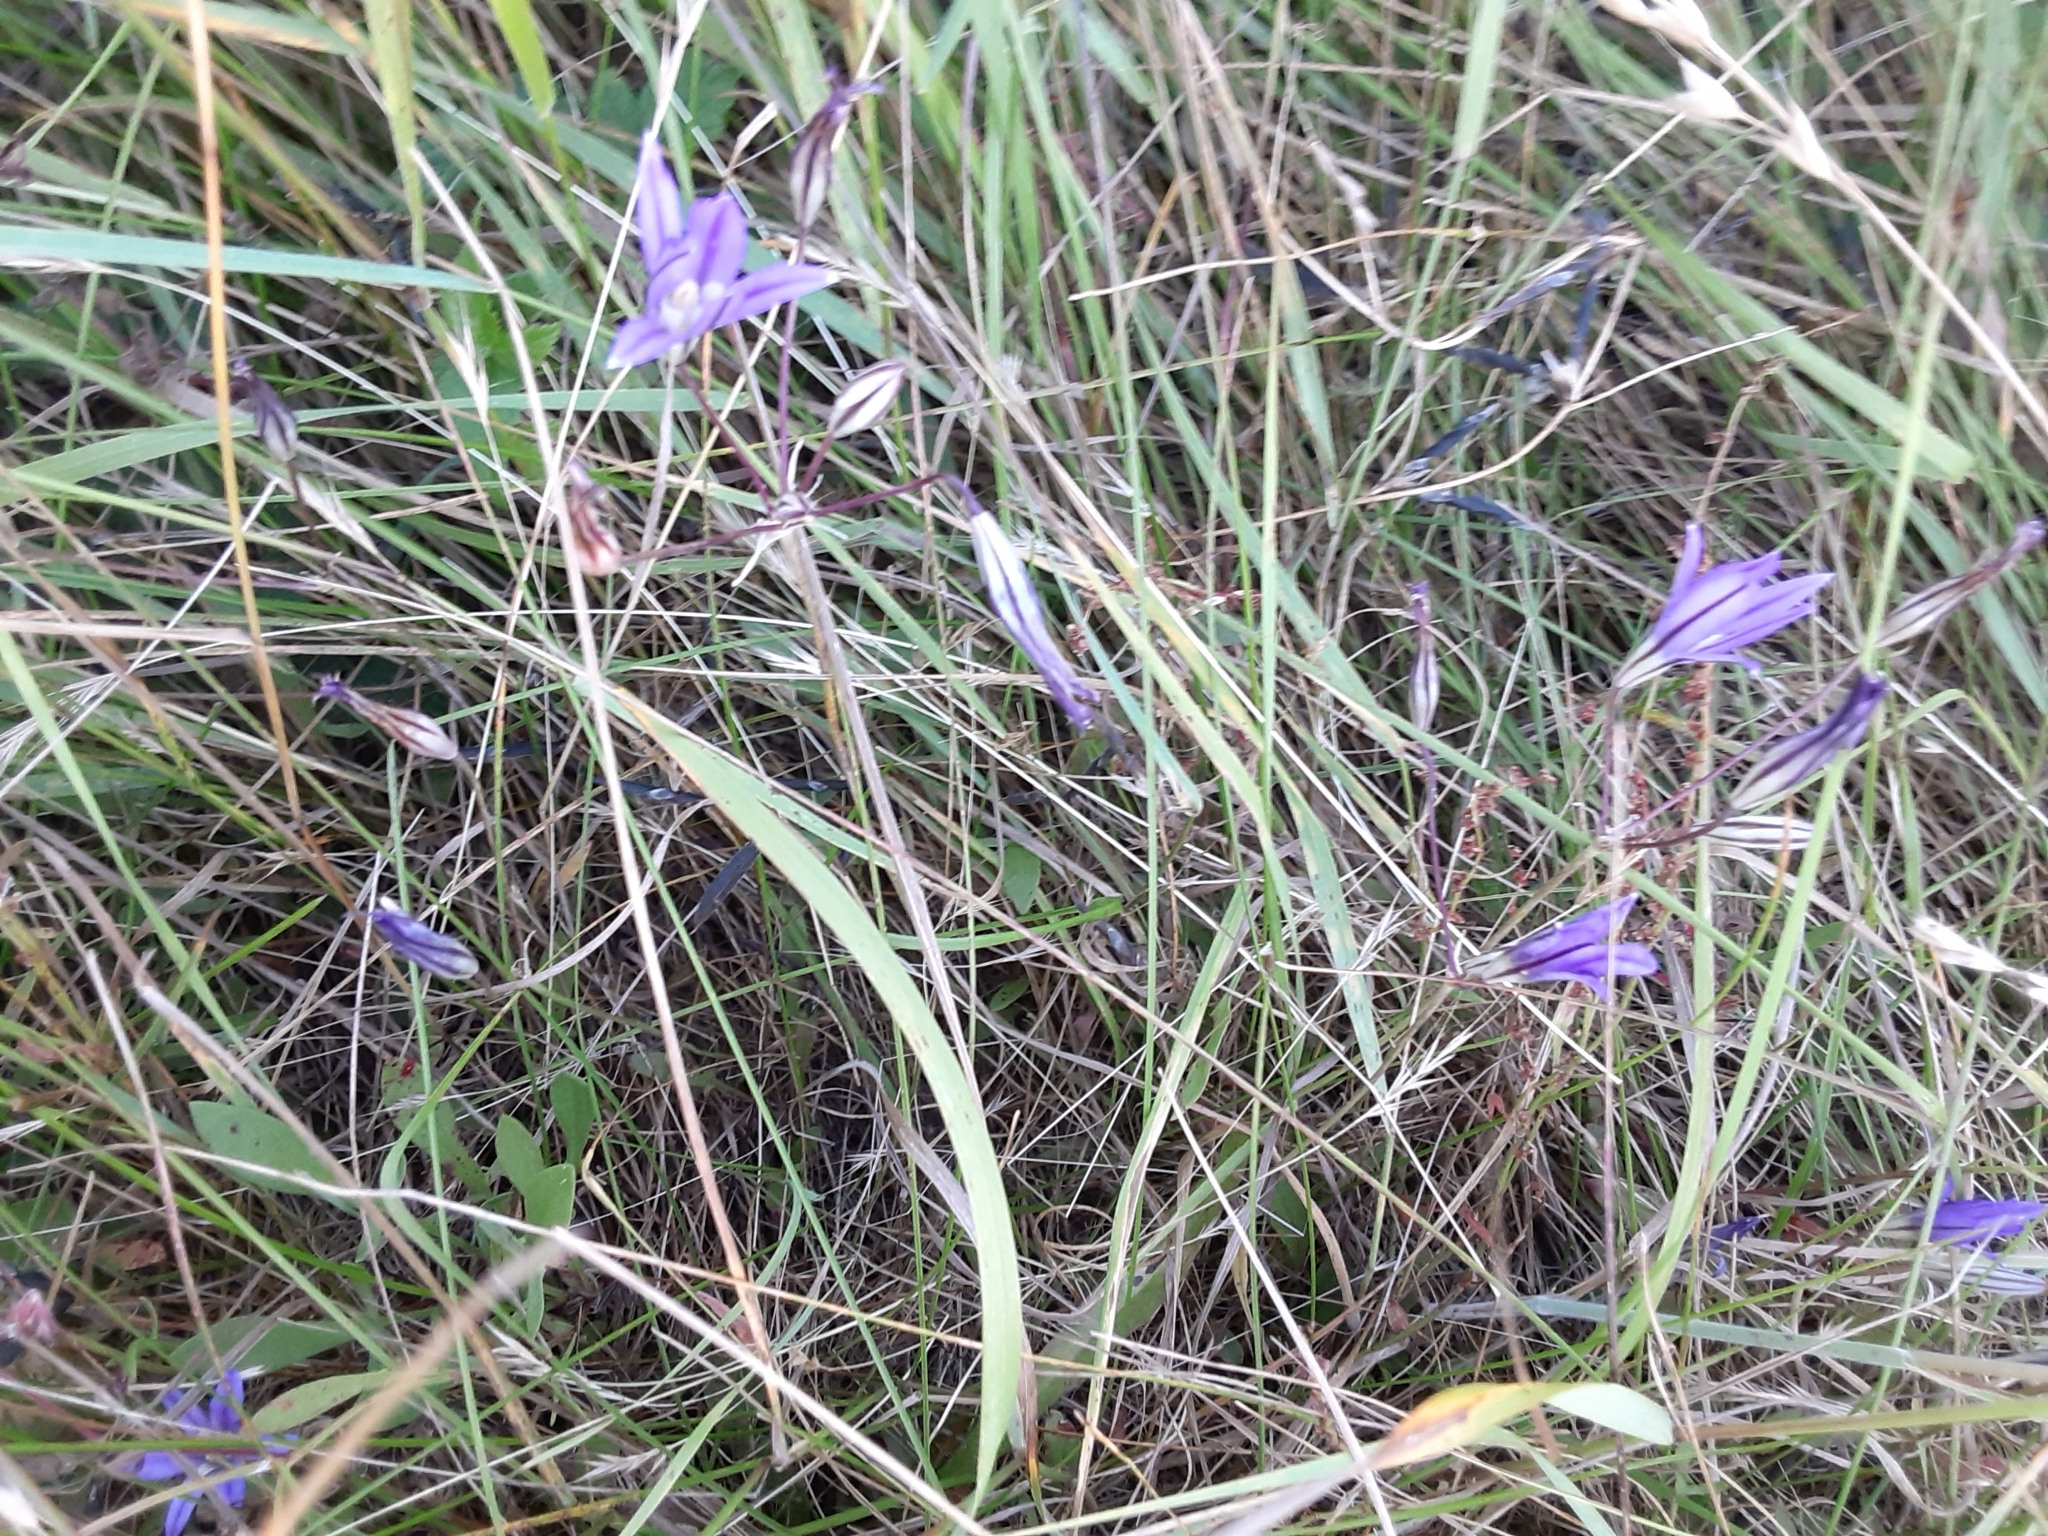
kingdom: Plantae
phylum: Tracheophyta
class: Liliopsida
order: Asparagales
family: Asparagaceae
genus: Brodiaea
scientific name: Brodiaea coronaria
